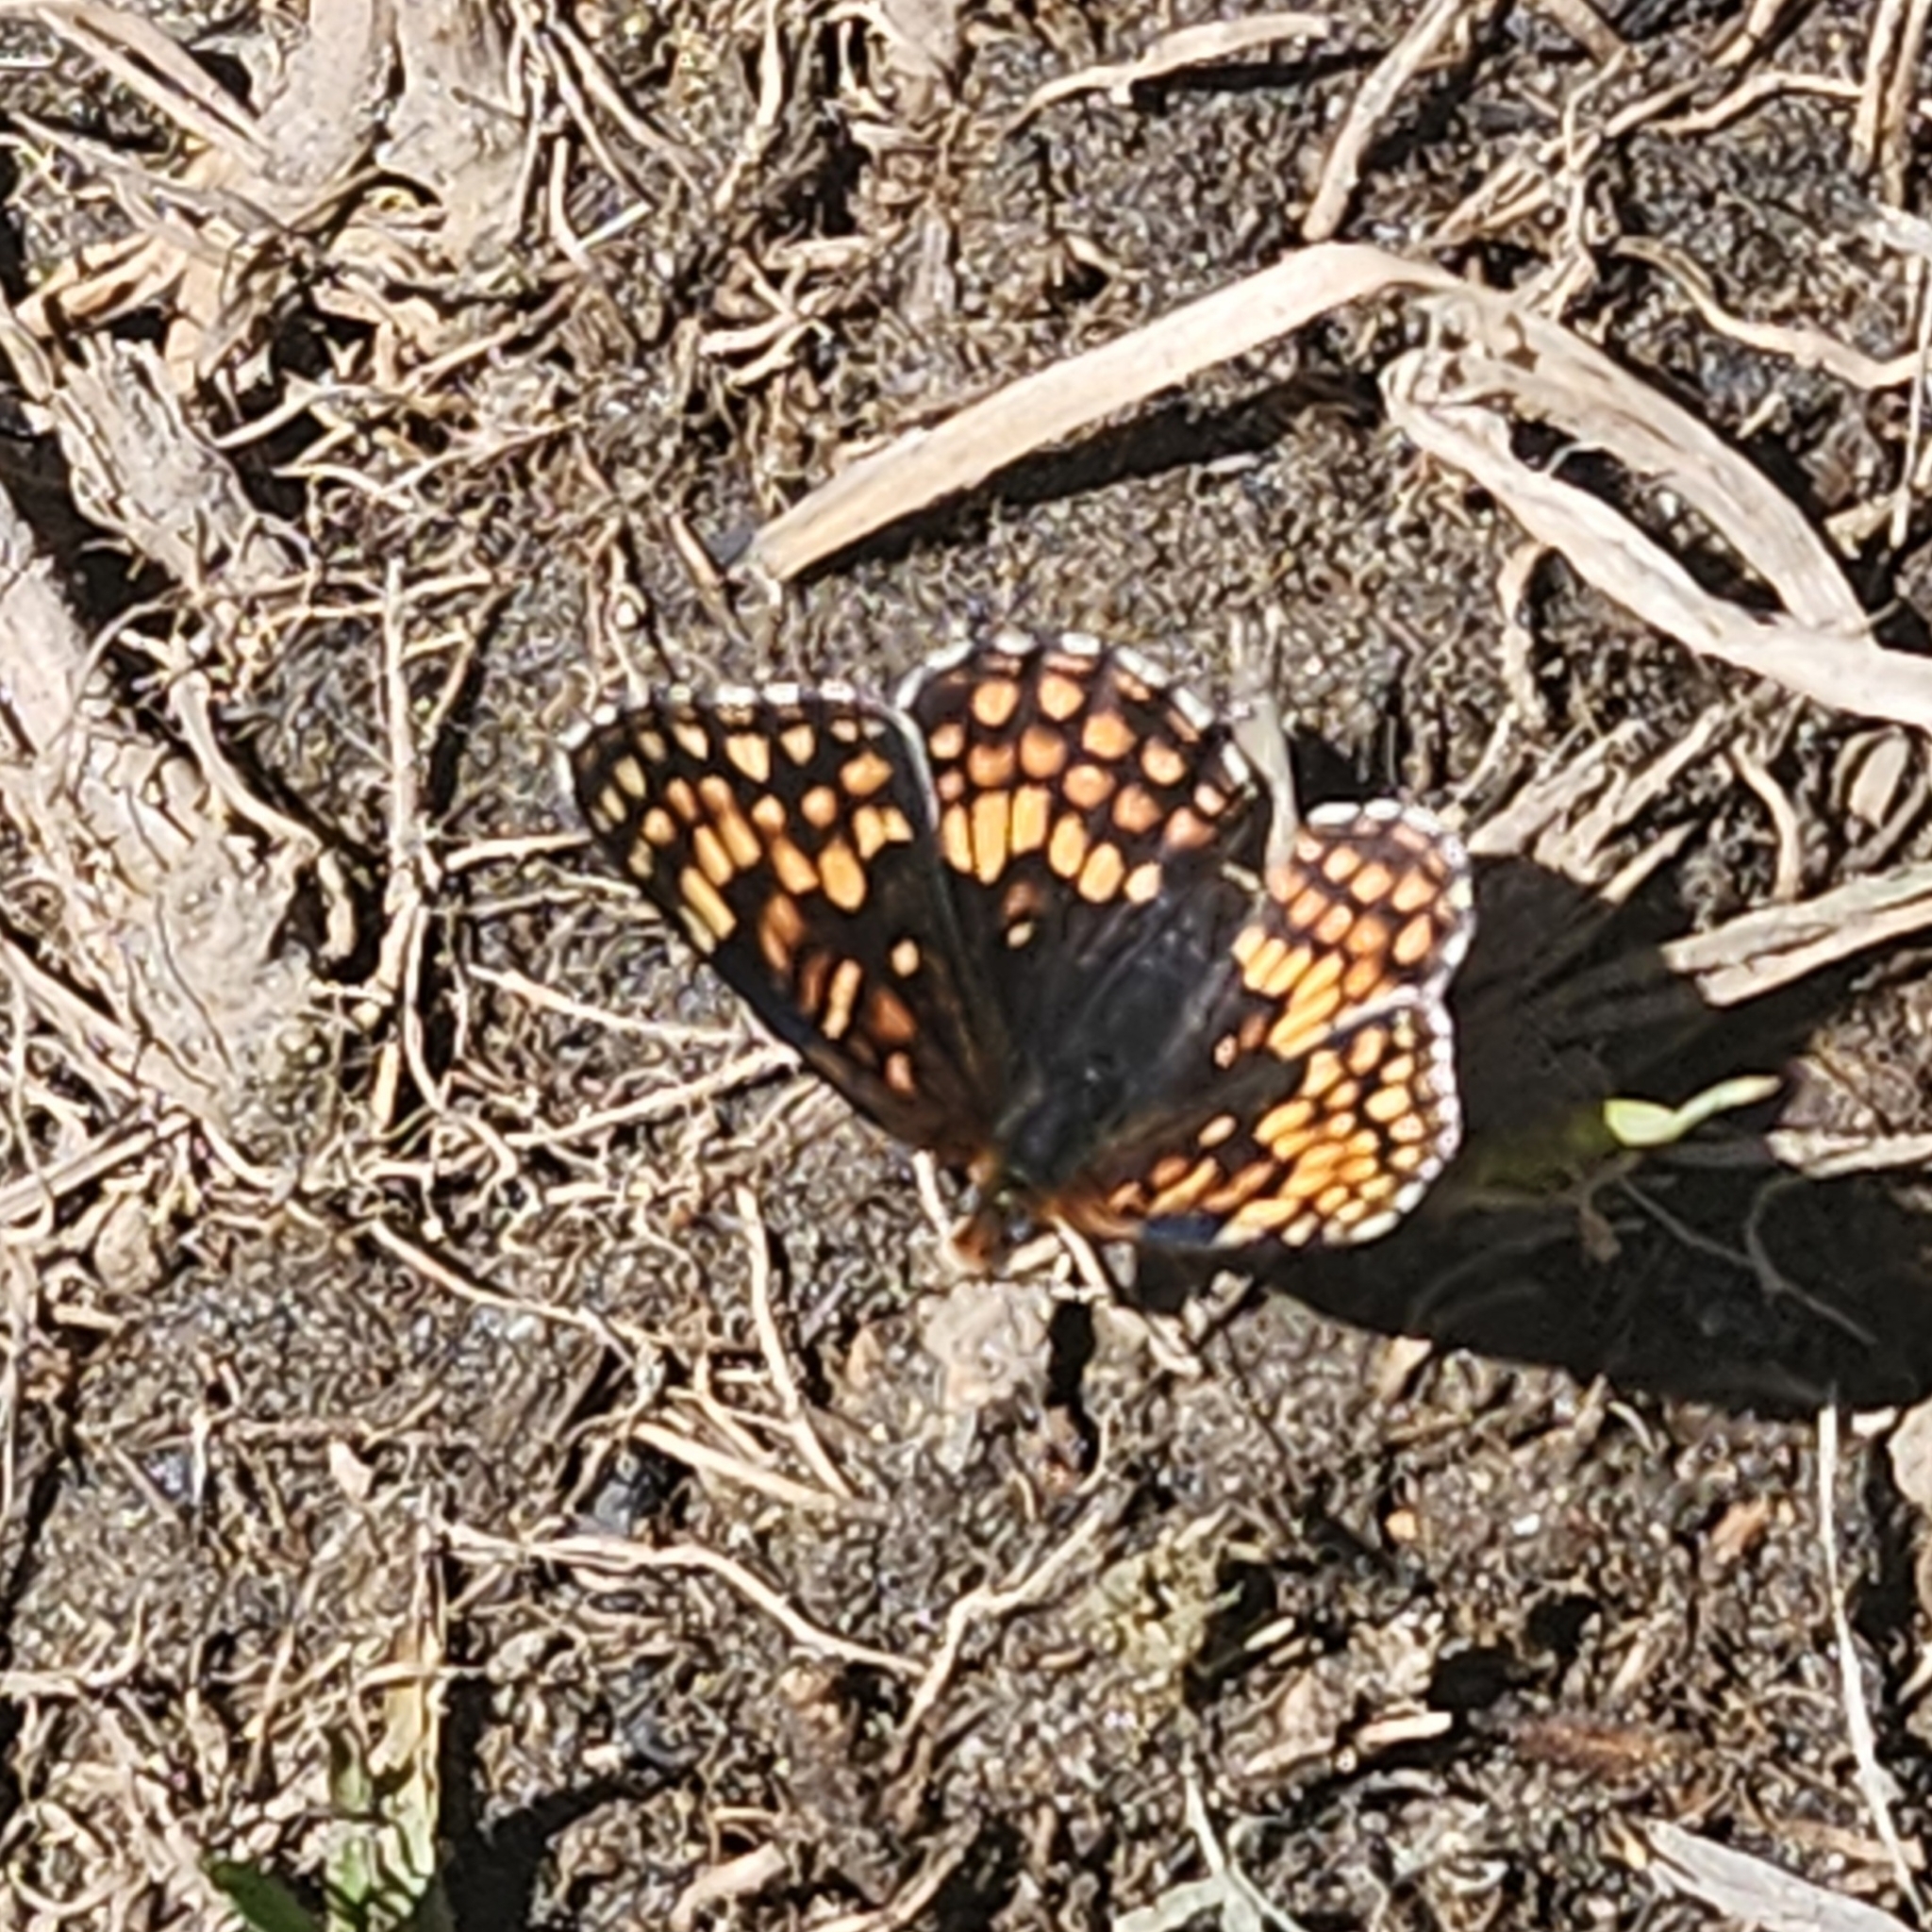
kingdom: Animalia
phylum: Arthropoda
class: Insecta
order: Lepidoptera
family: Nymphalidae
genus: Chlosyne
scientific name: Chlosyne sterope
